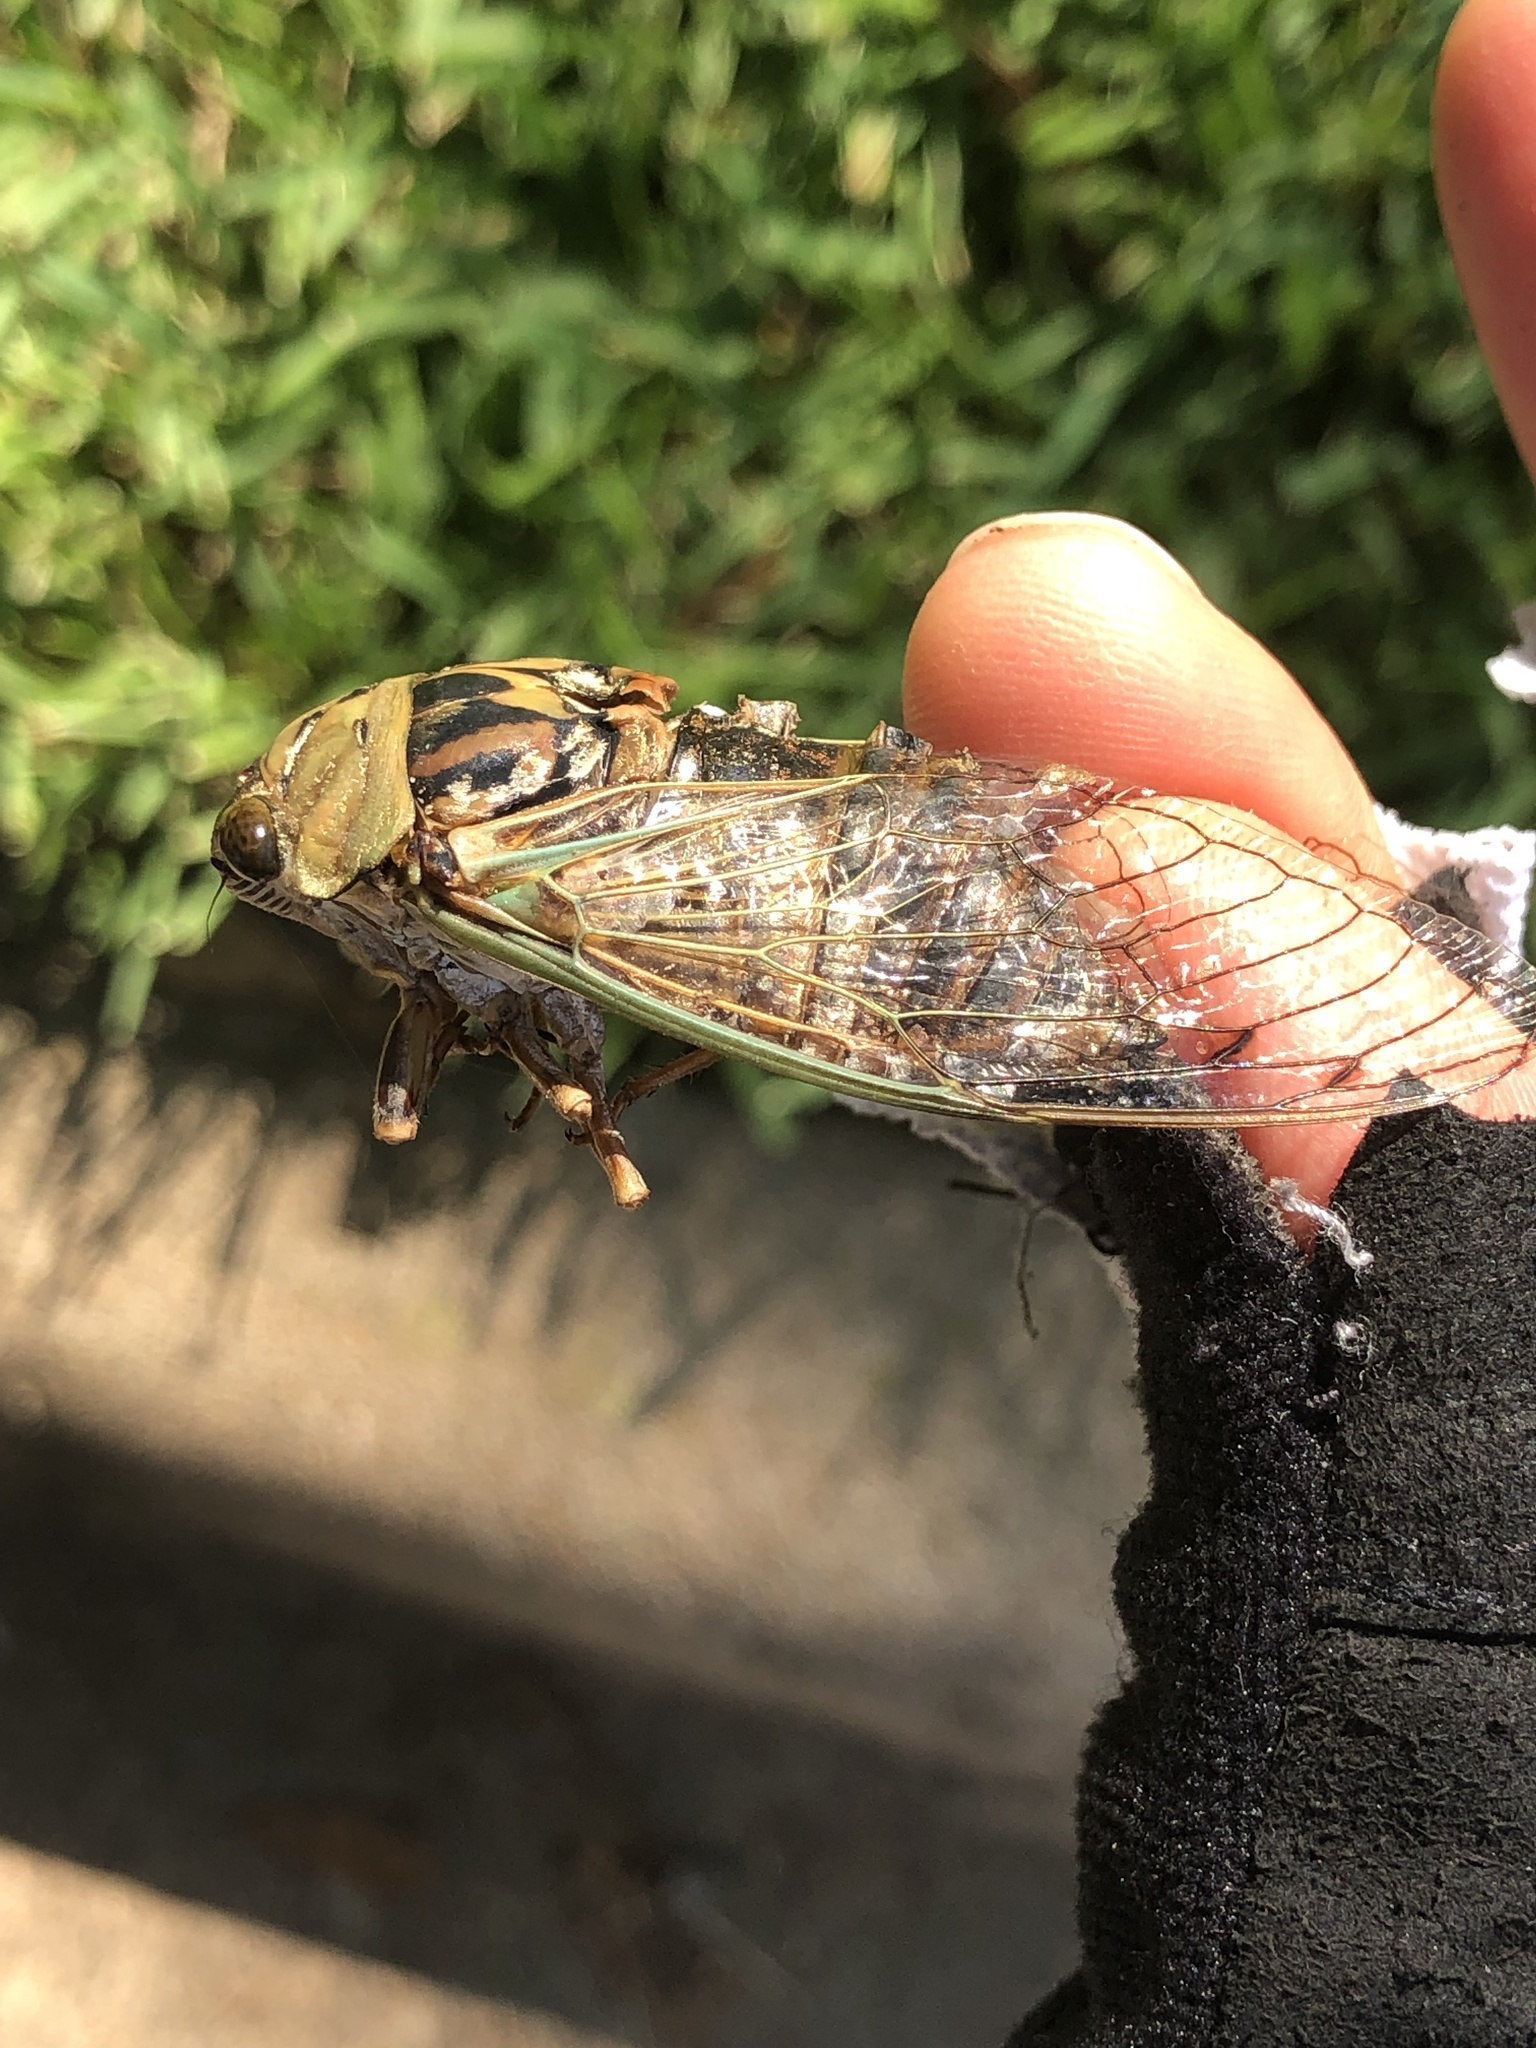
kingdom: Animalia
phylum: Arthropoda
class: Insecta
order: Hemiptera
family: Cicadidae
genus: Megatibicen
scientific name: Megatibicen resh
